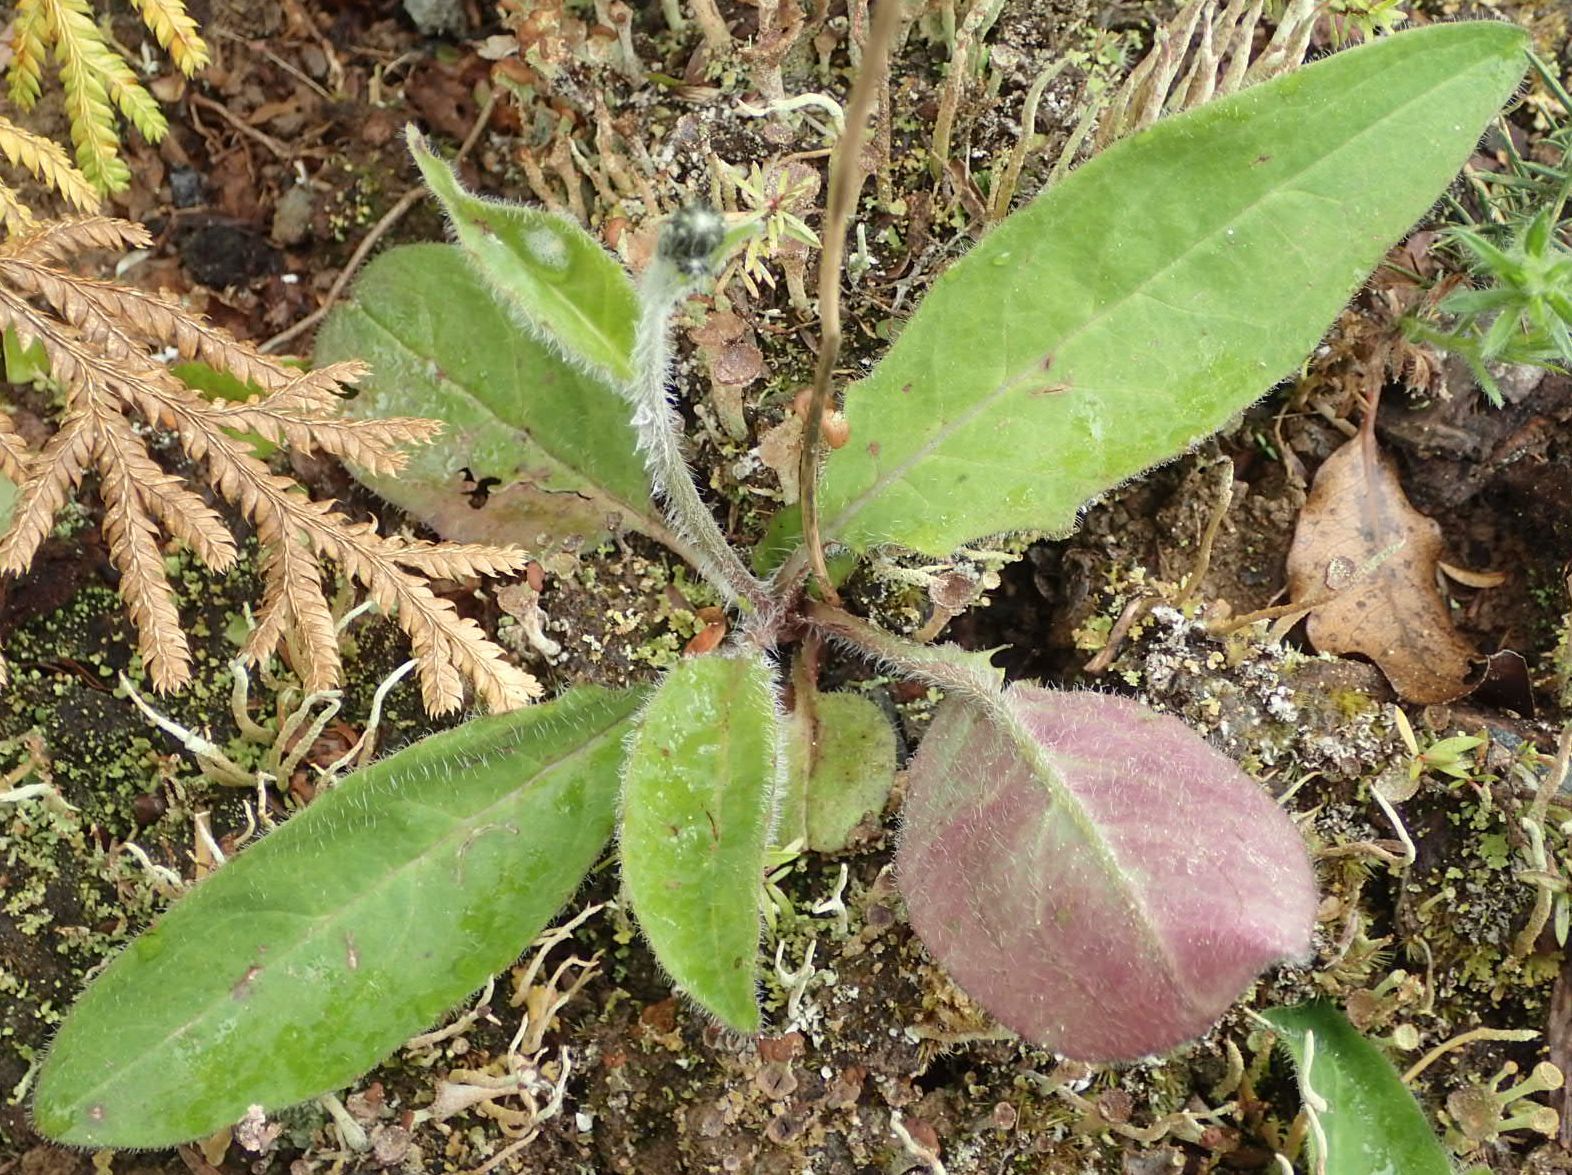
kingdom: Plantae
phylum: Tracheophyta
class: Magnoliopsida
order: Asterales
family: Asteraceae
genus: Hieracium
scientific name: Hieracium lepidulum
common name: Irregular-toothed hawkweed
